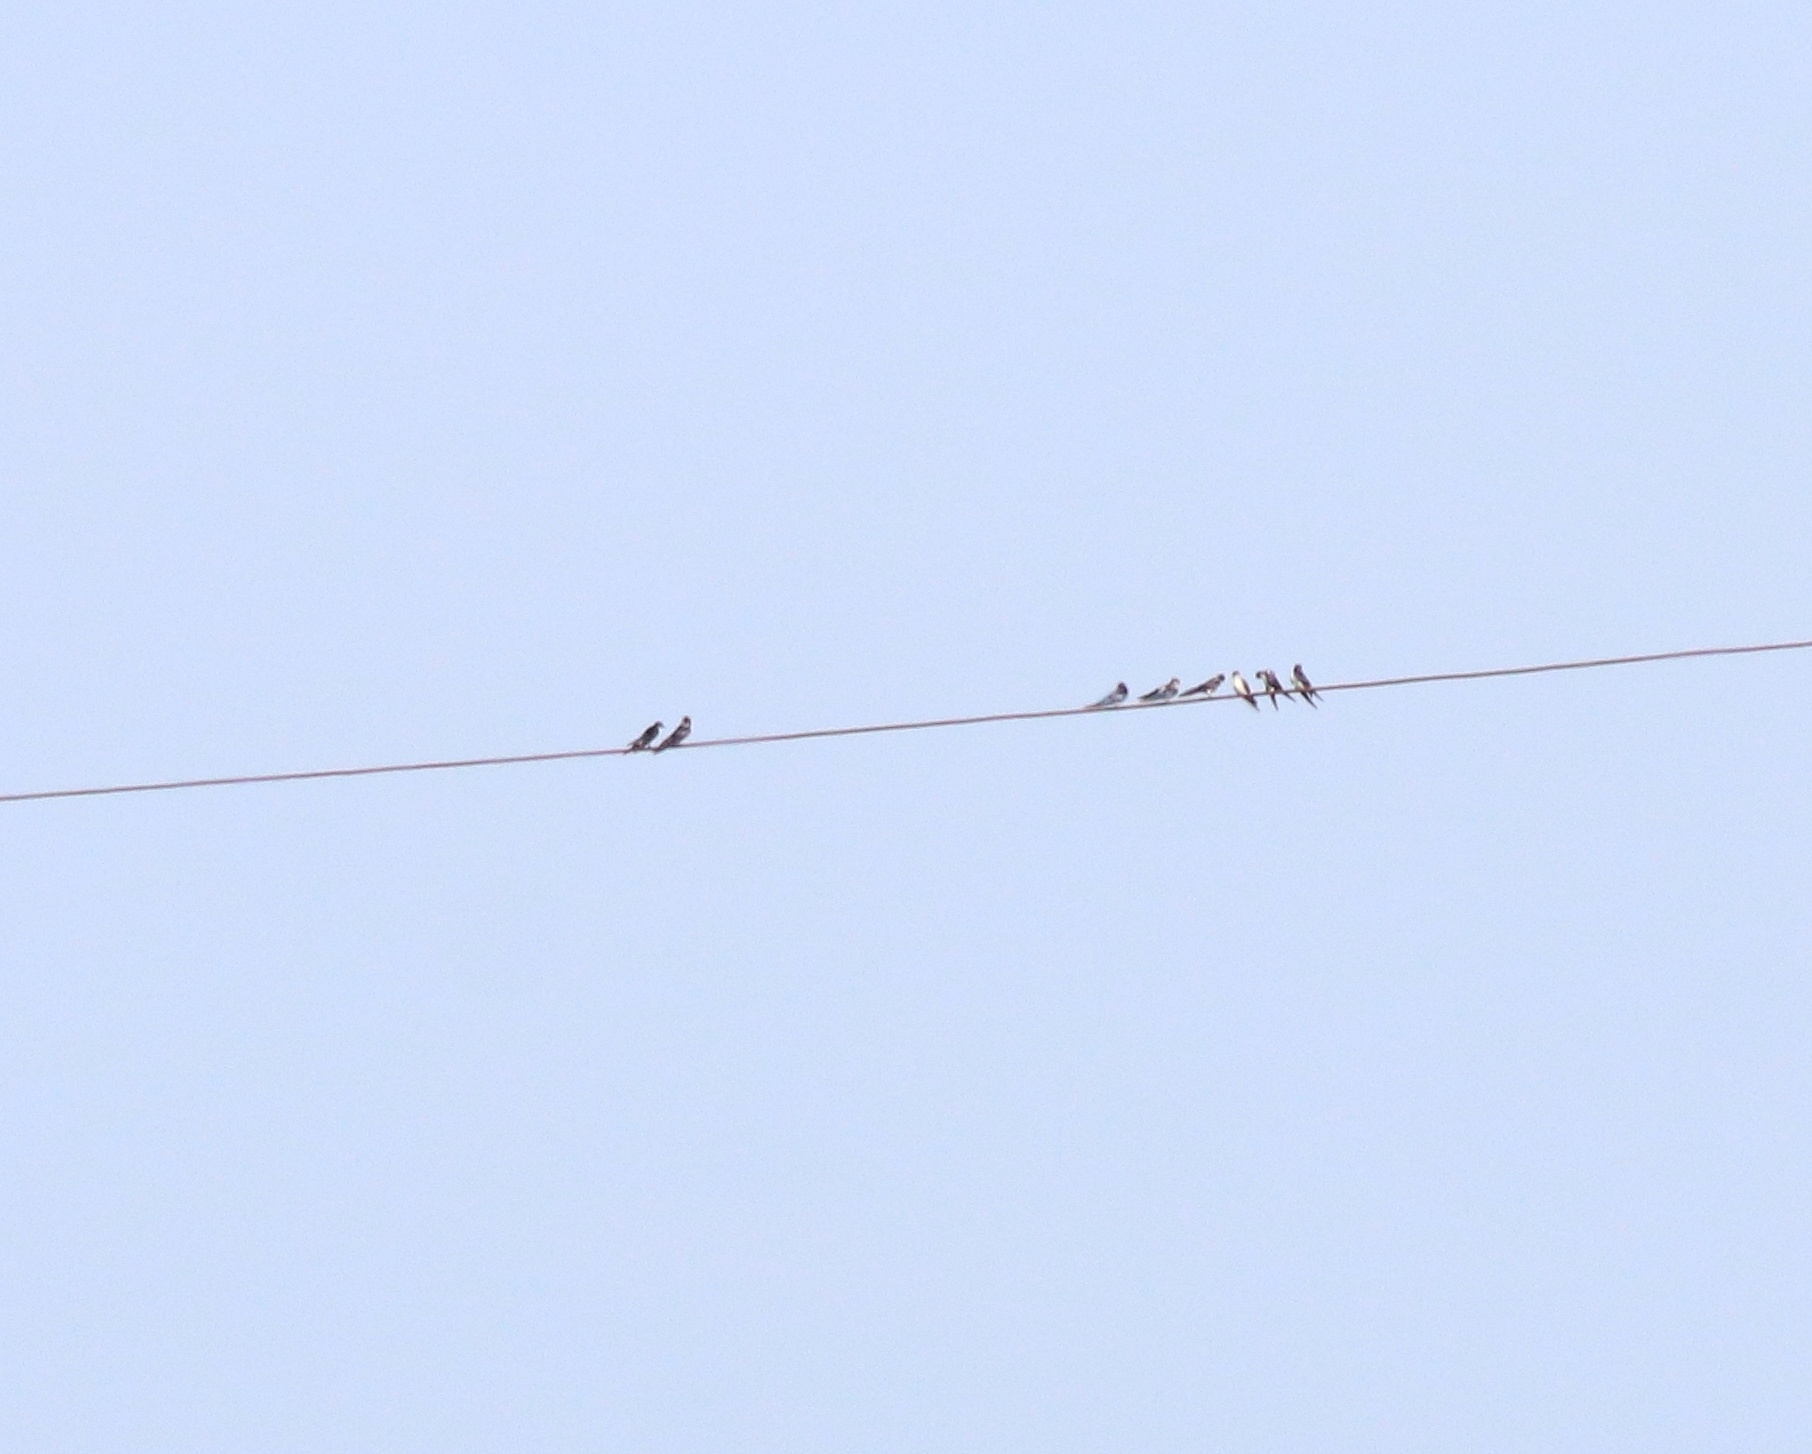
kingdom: Animalia
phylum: Chordata
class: Aves
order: Passeriformes
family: Hirundinidae
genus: Hirundo
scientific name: Hirundo smithii
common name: Wire-tailed swallow
